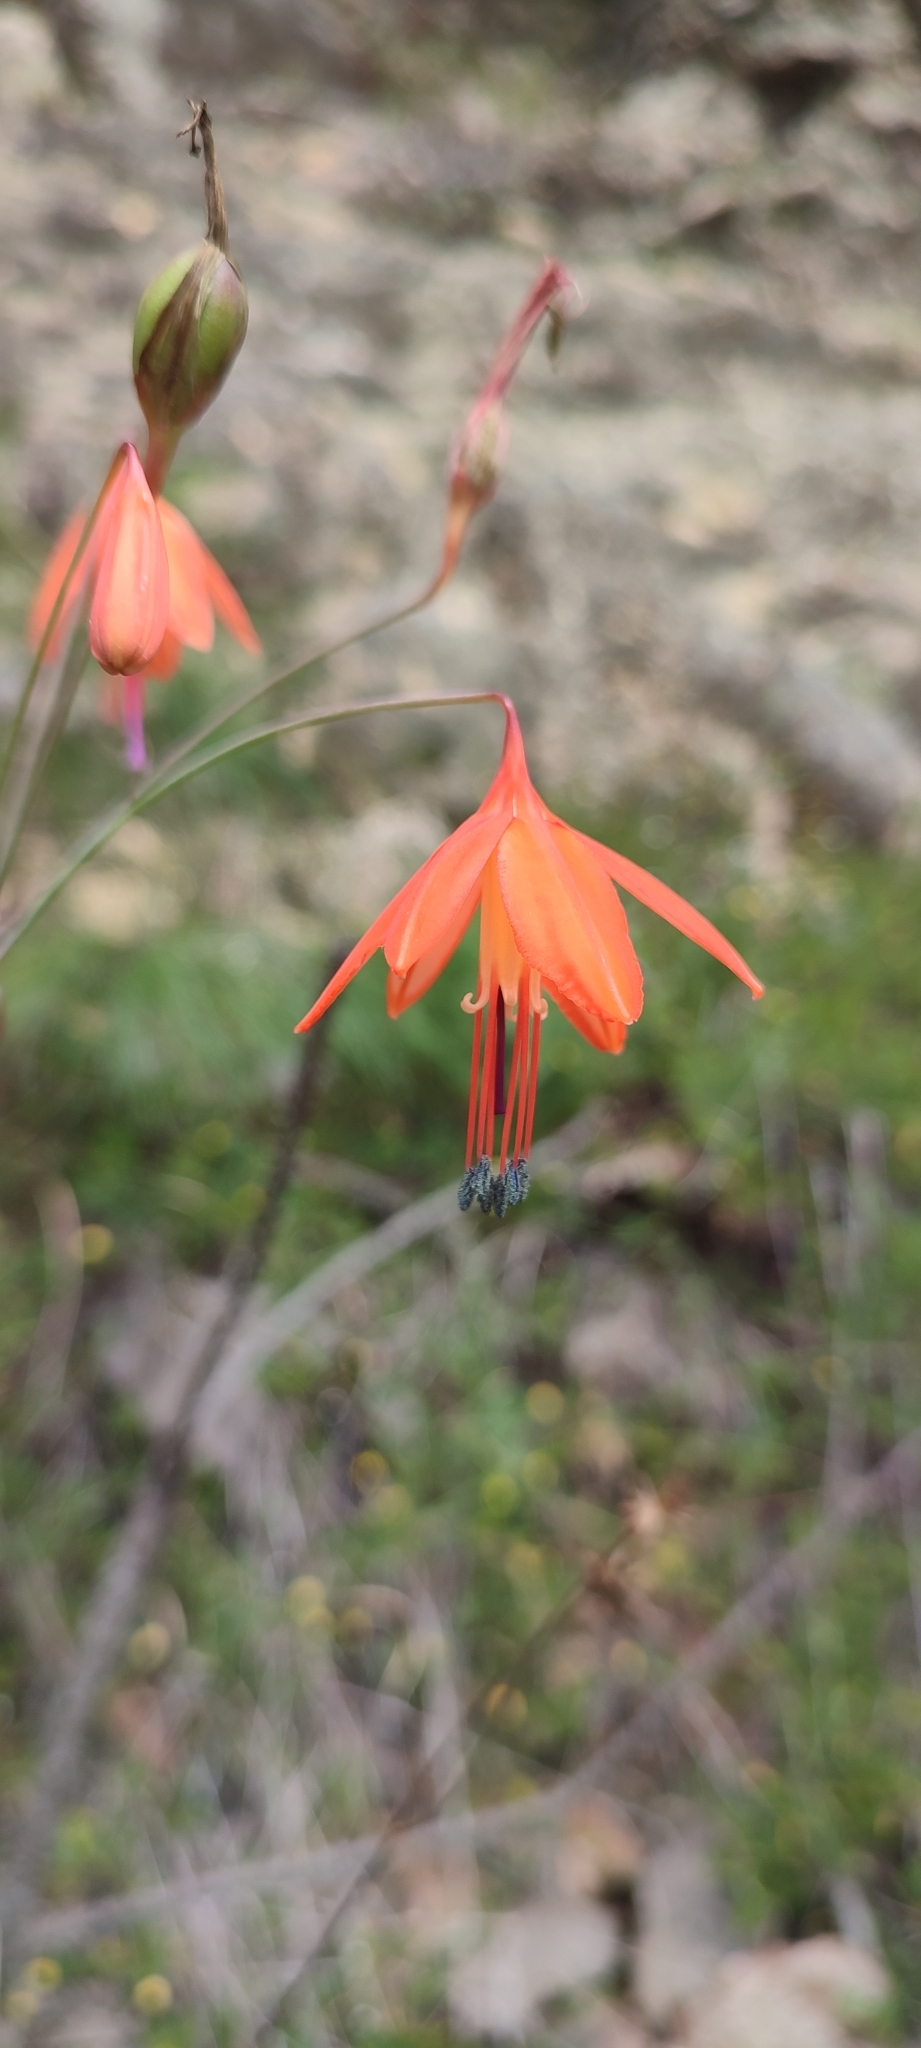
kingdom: Plantae
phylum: Tracheophyta
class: Liliopsida
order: Asparagales
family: Asparagaceae
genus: Bessera
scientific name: Bessera elegans
